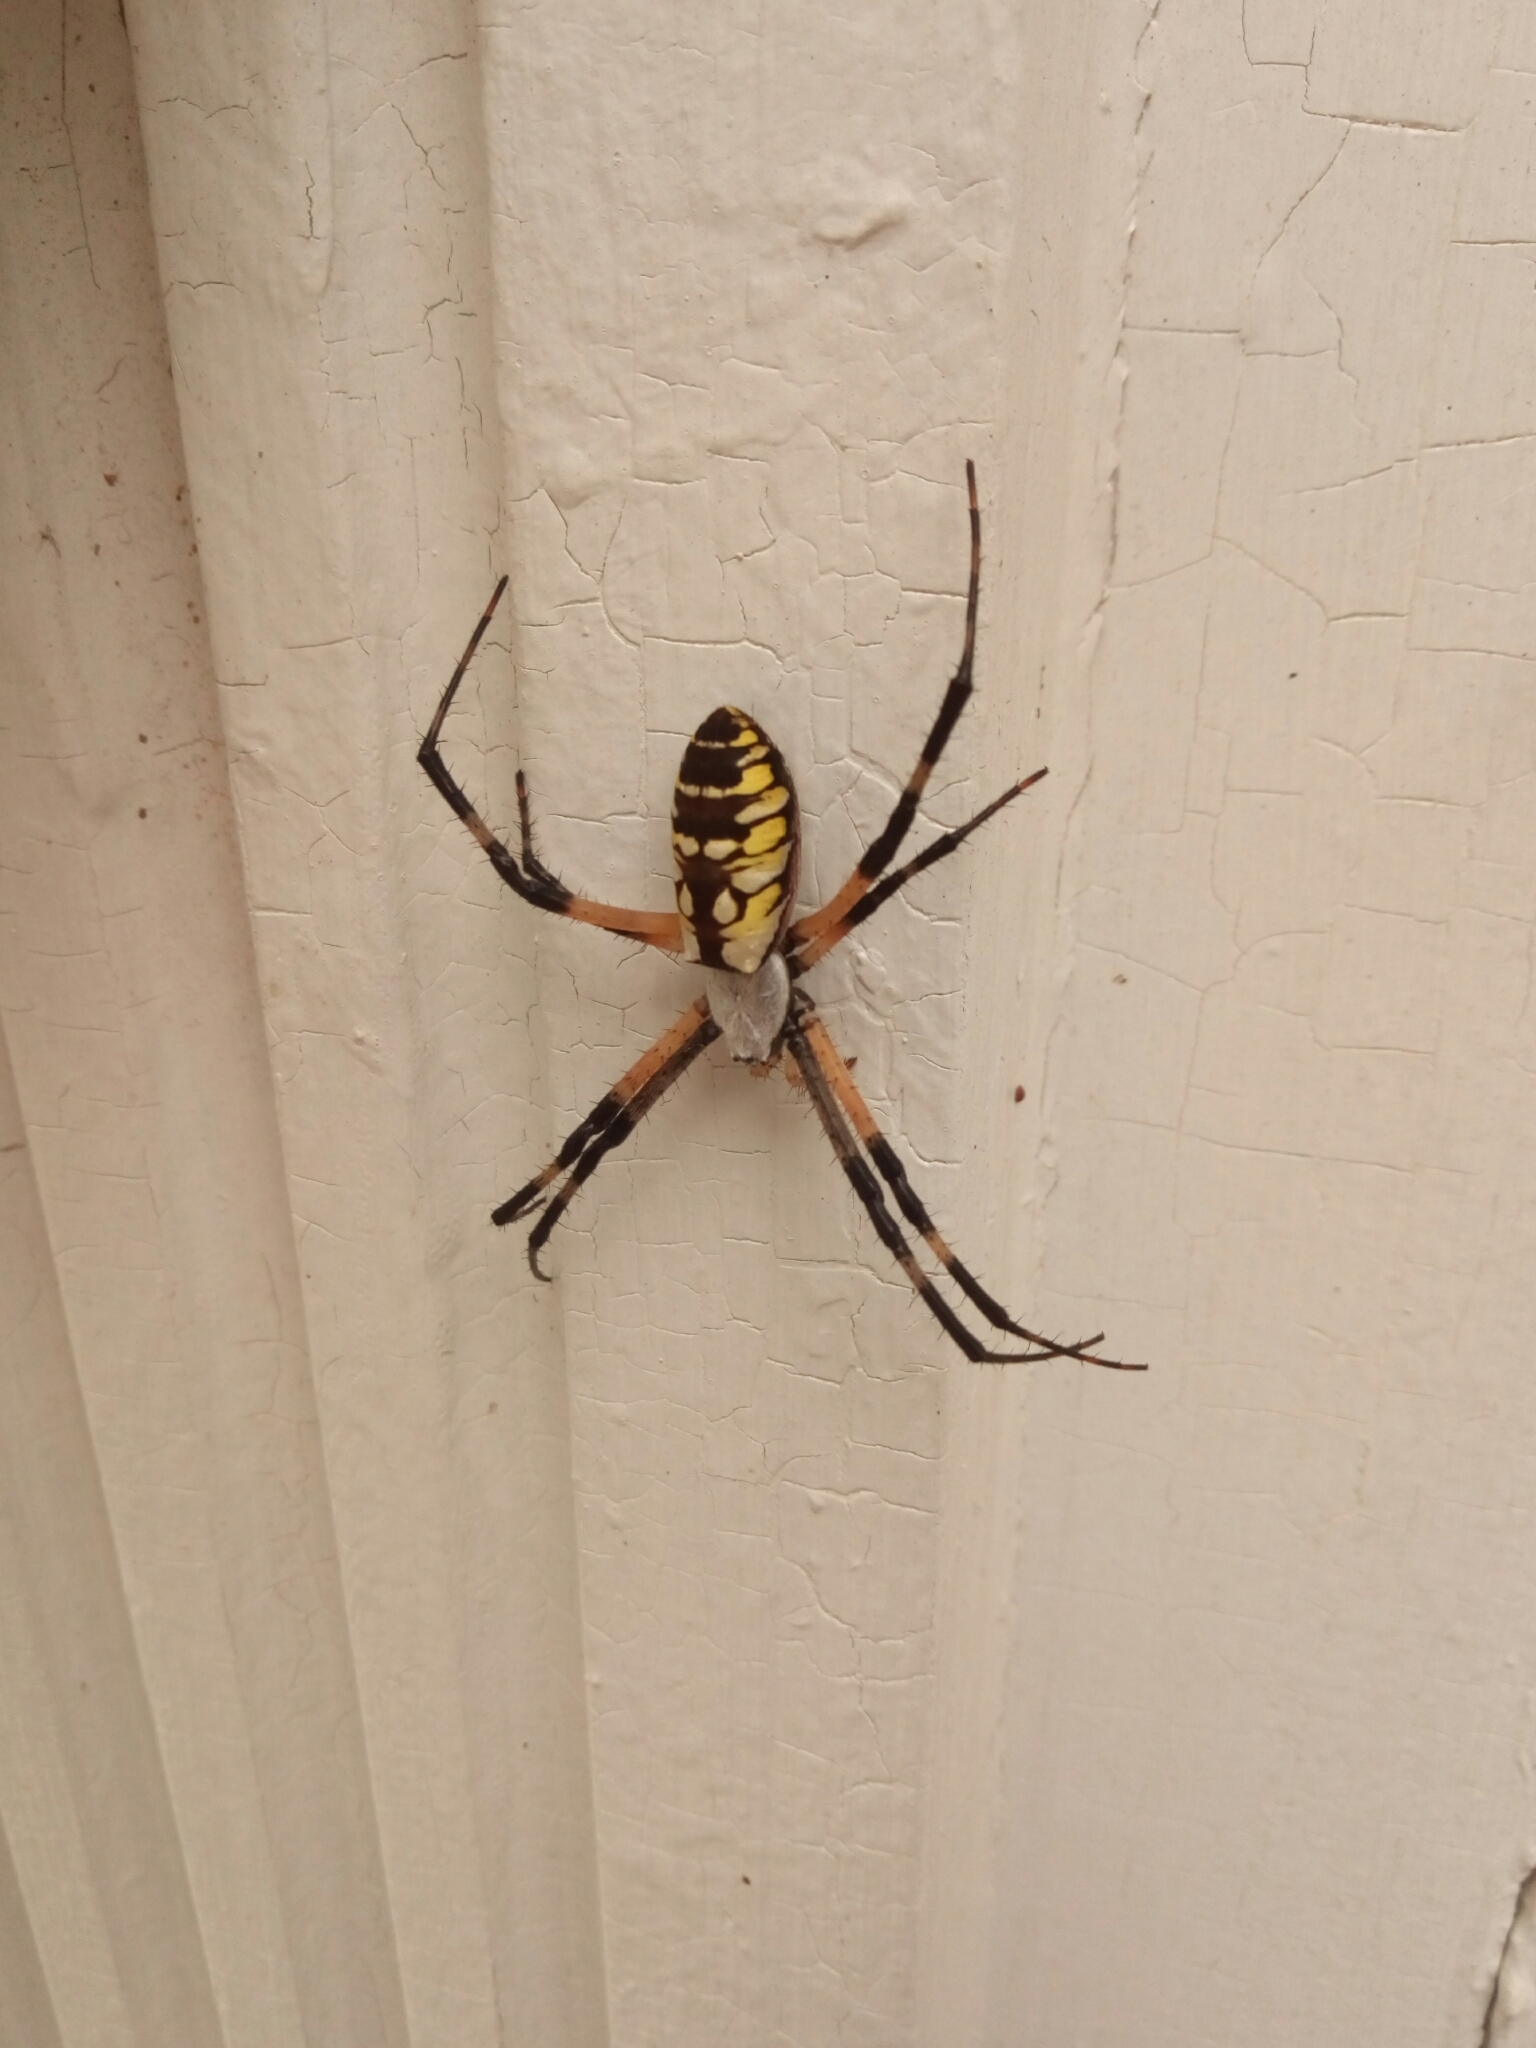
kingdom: Animalia
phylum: Arthropoda
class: Arachnida
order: Araneae
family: Araneidae
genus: Argiope
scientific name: Argiope aurantia
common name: Orb weavers
